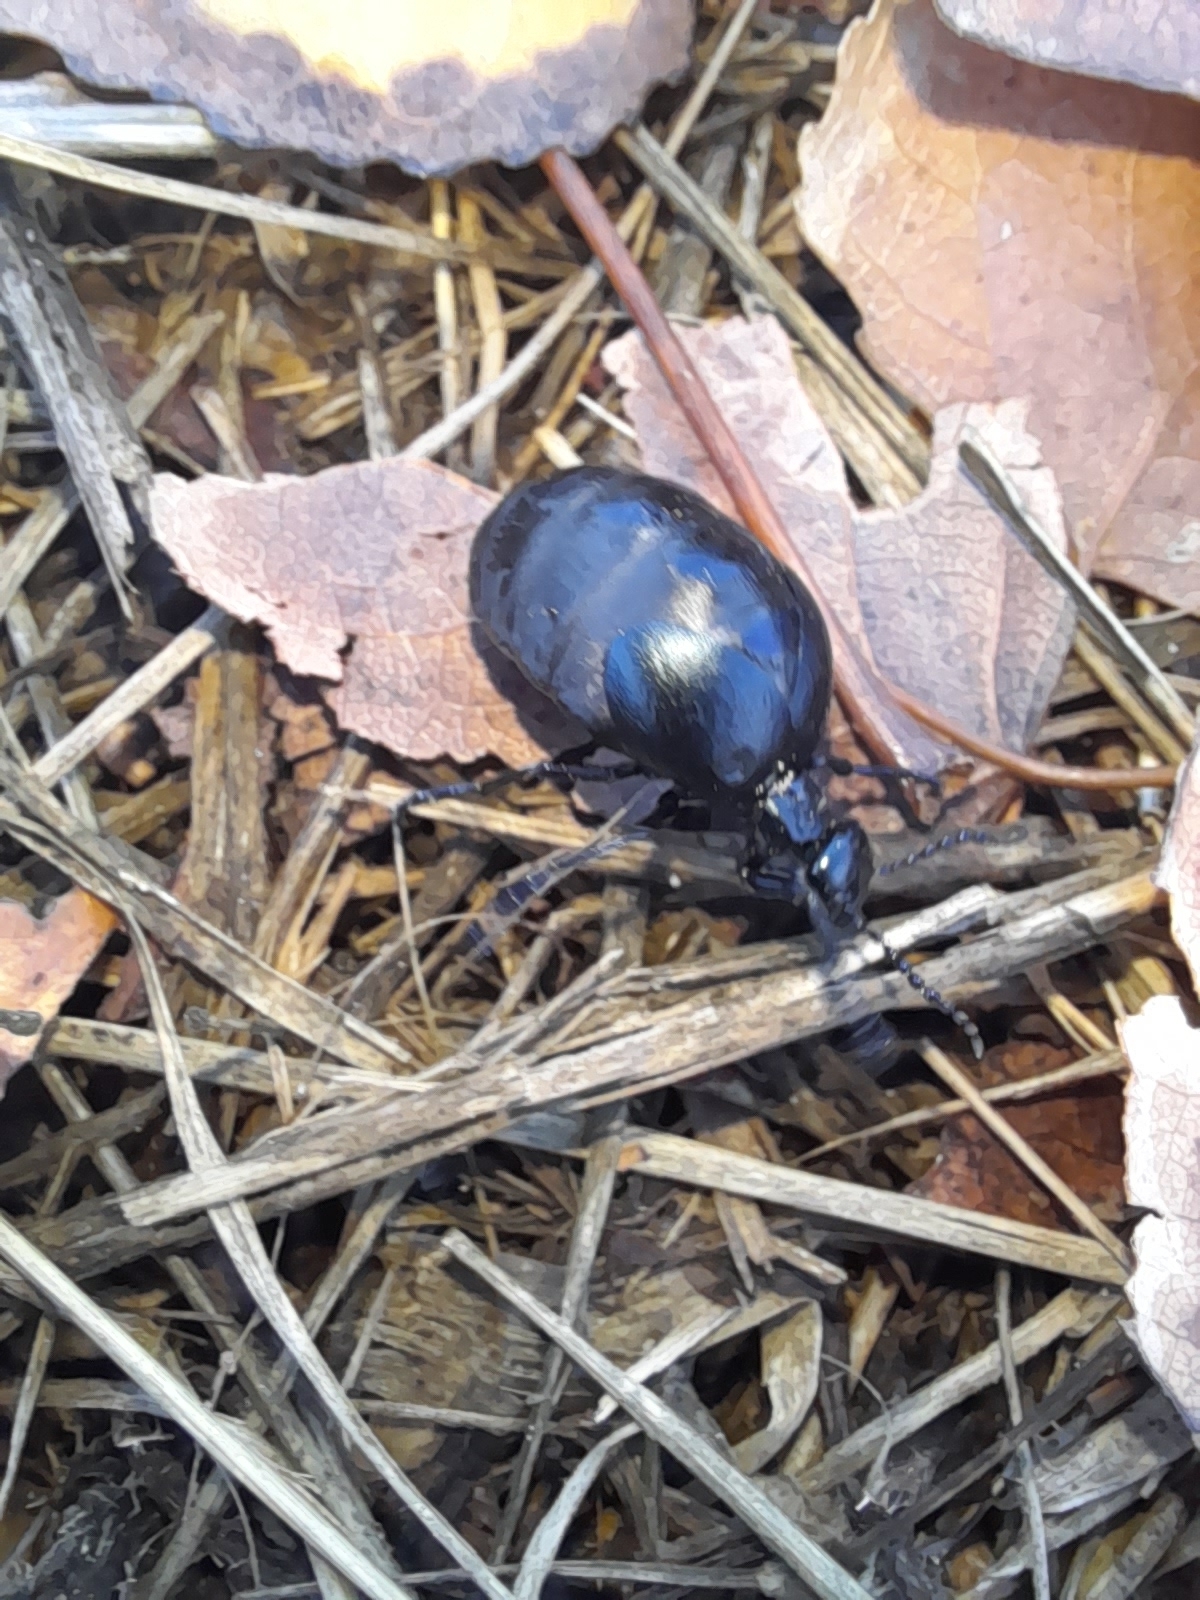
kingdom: Animalia
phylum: Arthropoda
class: Insecta
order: Coleoptera
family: Meloidae
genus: Meloe
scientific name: Meloe autumnalis
